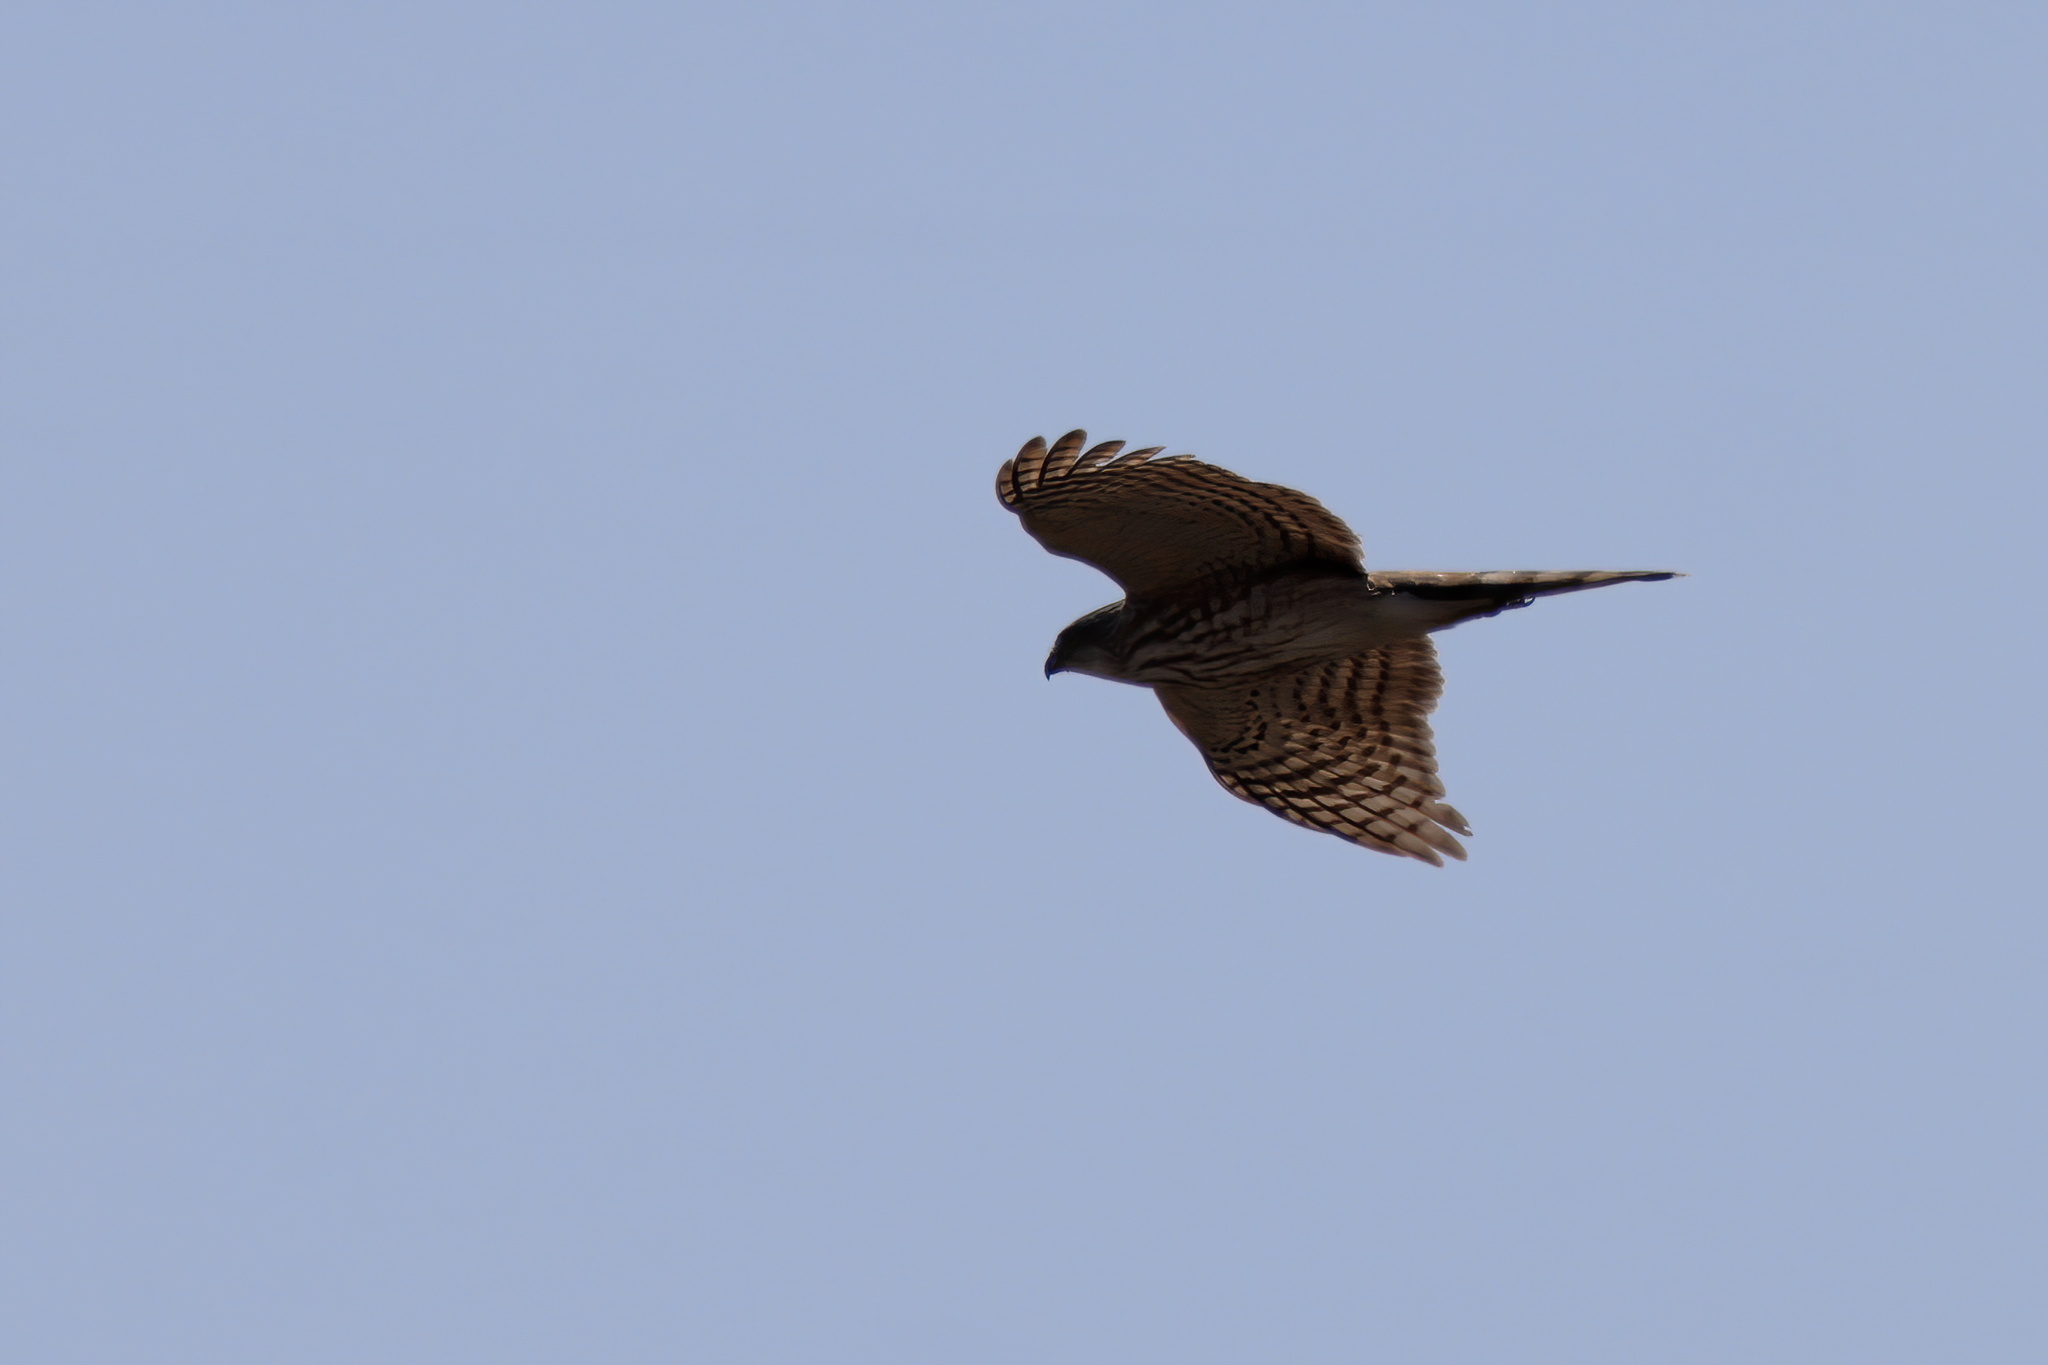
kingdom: Animalia
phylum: Chordata
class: Aves
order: Accipitriformes
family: Accipitridae
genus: Accipiter
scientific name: Accipiter cooperii
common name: Cooper's hawk
